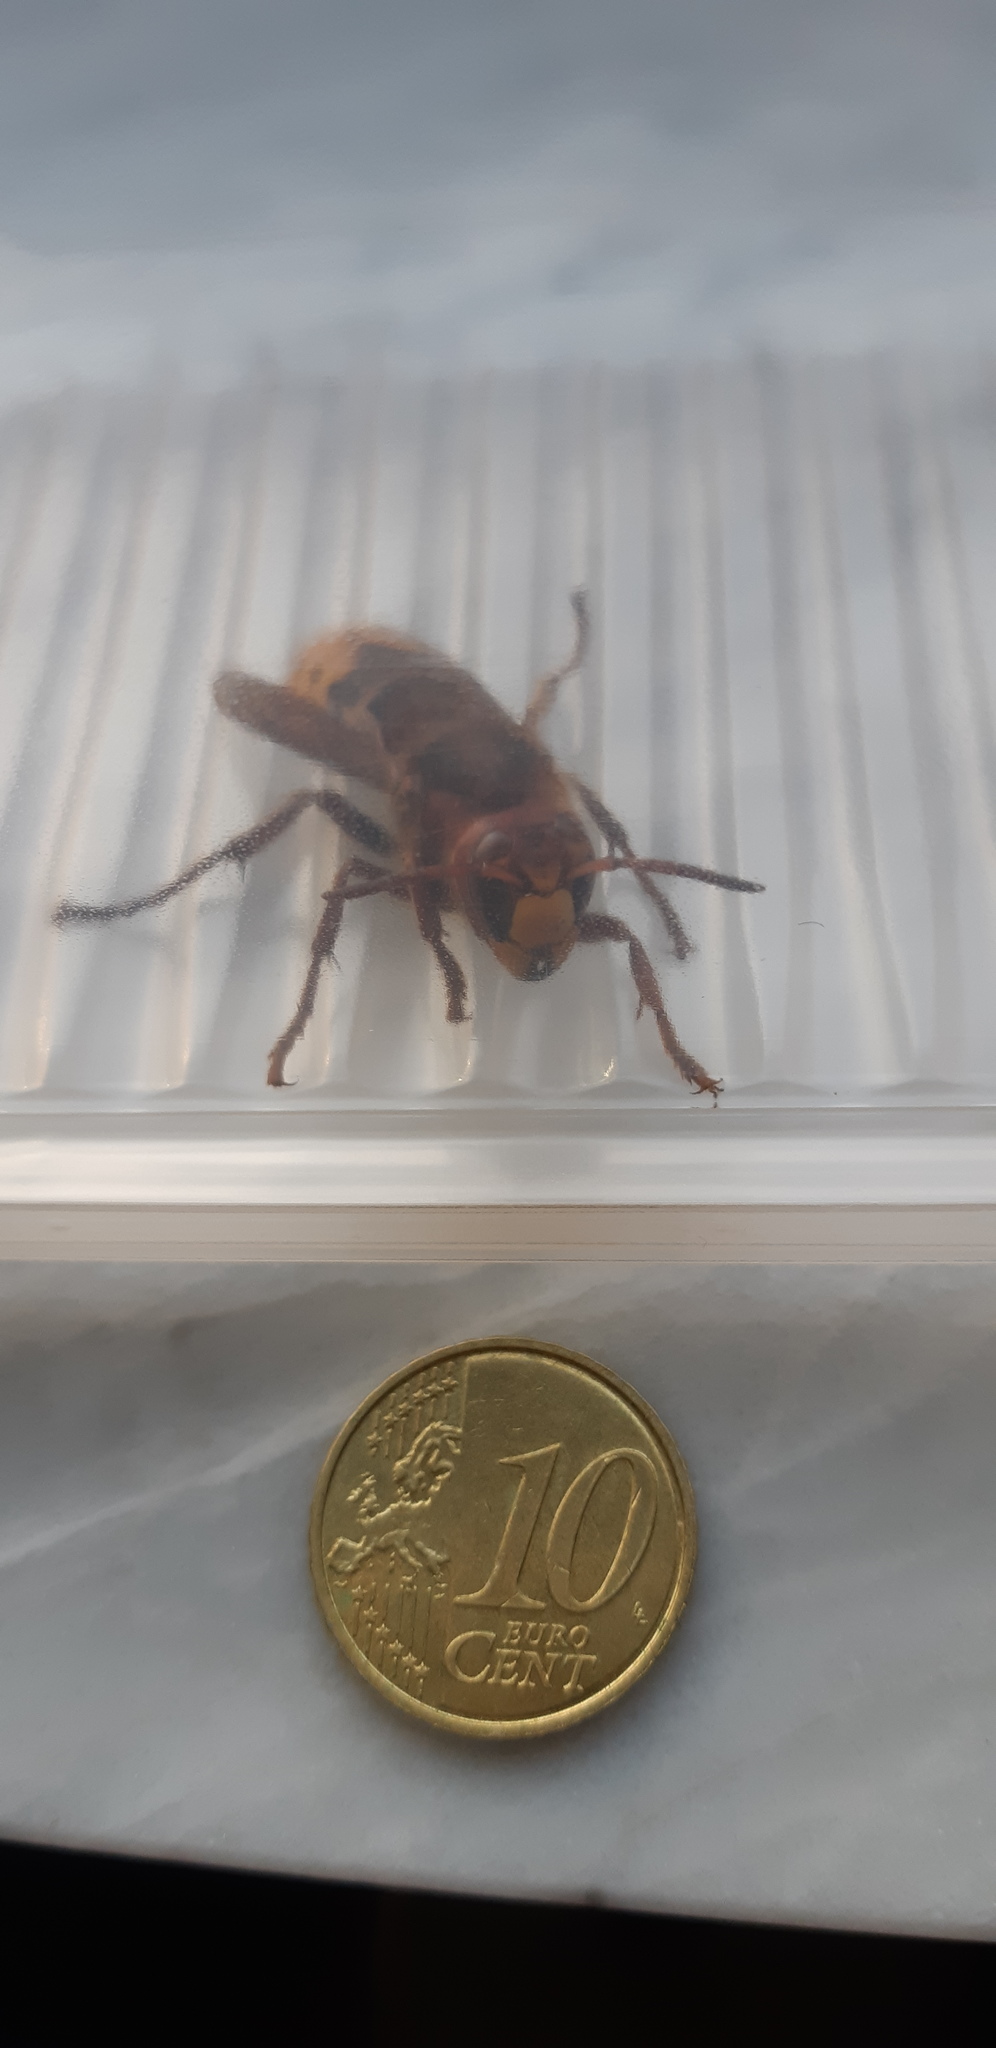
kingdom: Animalia
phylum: Arthropoda
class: Insecta
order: Hymenoptera
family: Vespidae
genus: Vespa
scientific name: Vespa crabro
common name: Hornet
